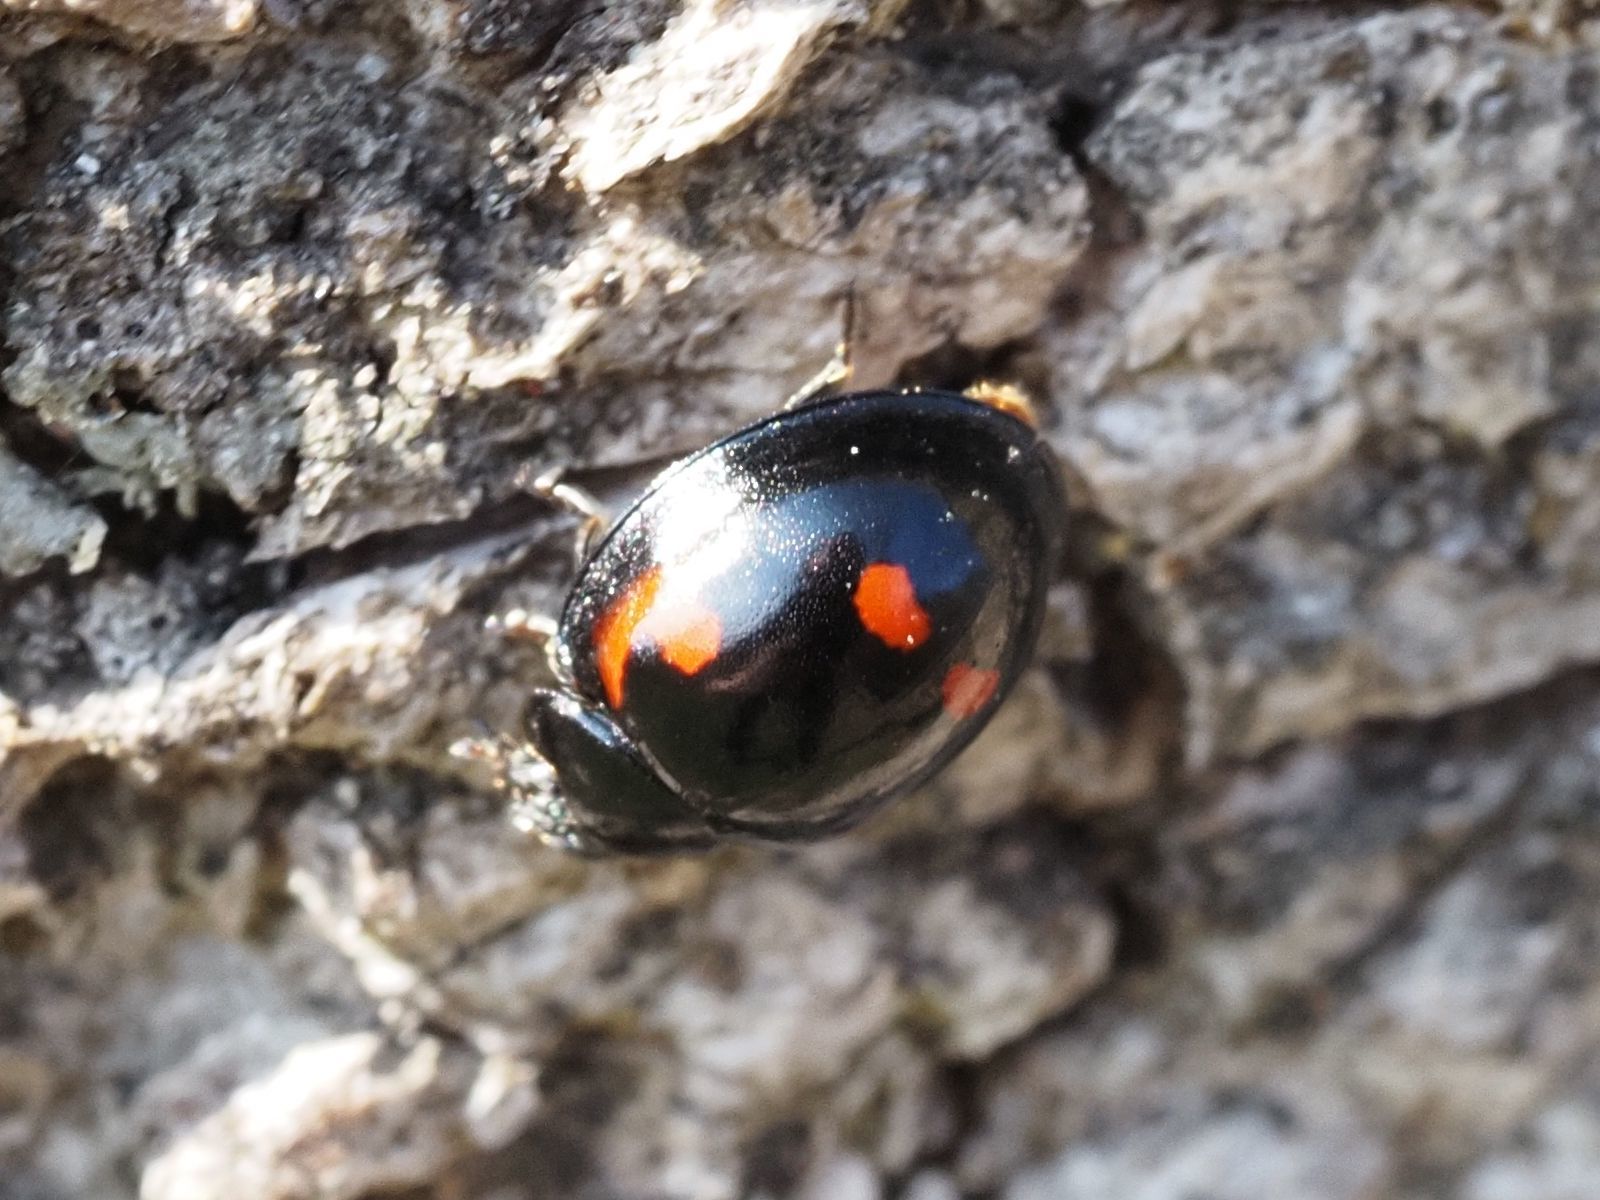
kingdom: Animalia
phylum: Arthropoda
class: Insecta
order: Coleoptera
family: Coccinellidae
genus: Brumus
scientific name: Brumus quadripustulatus
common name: Ladybird beetle
